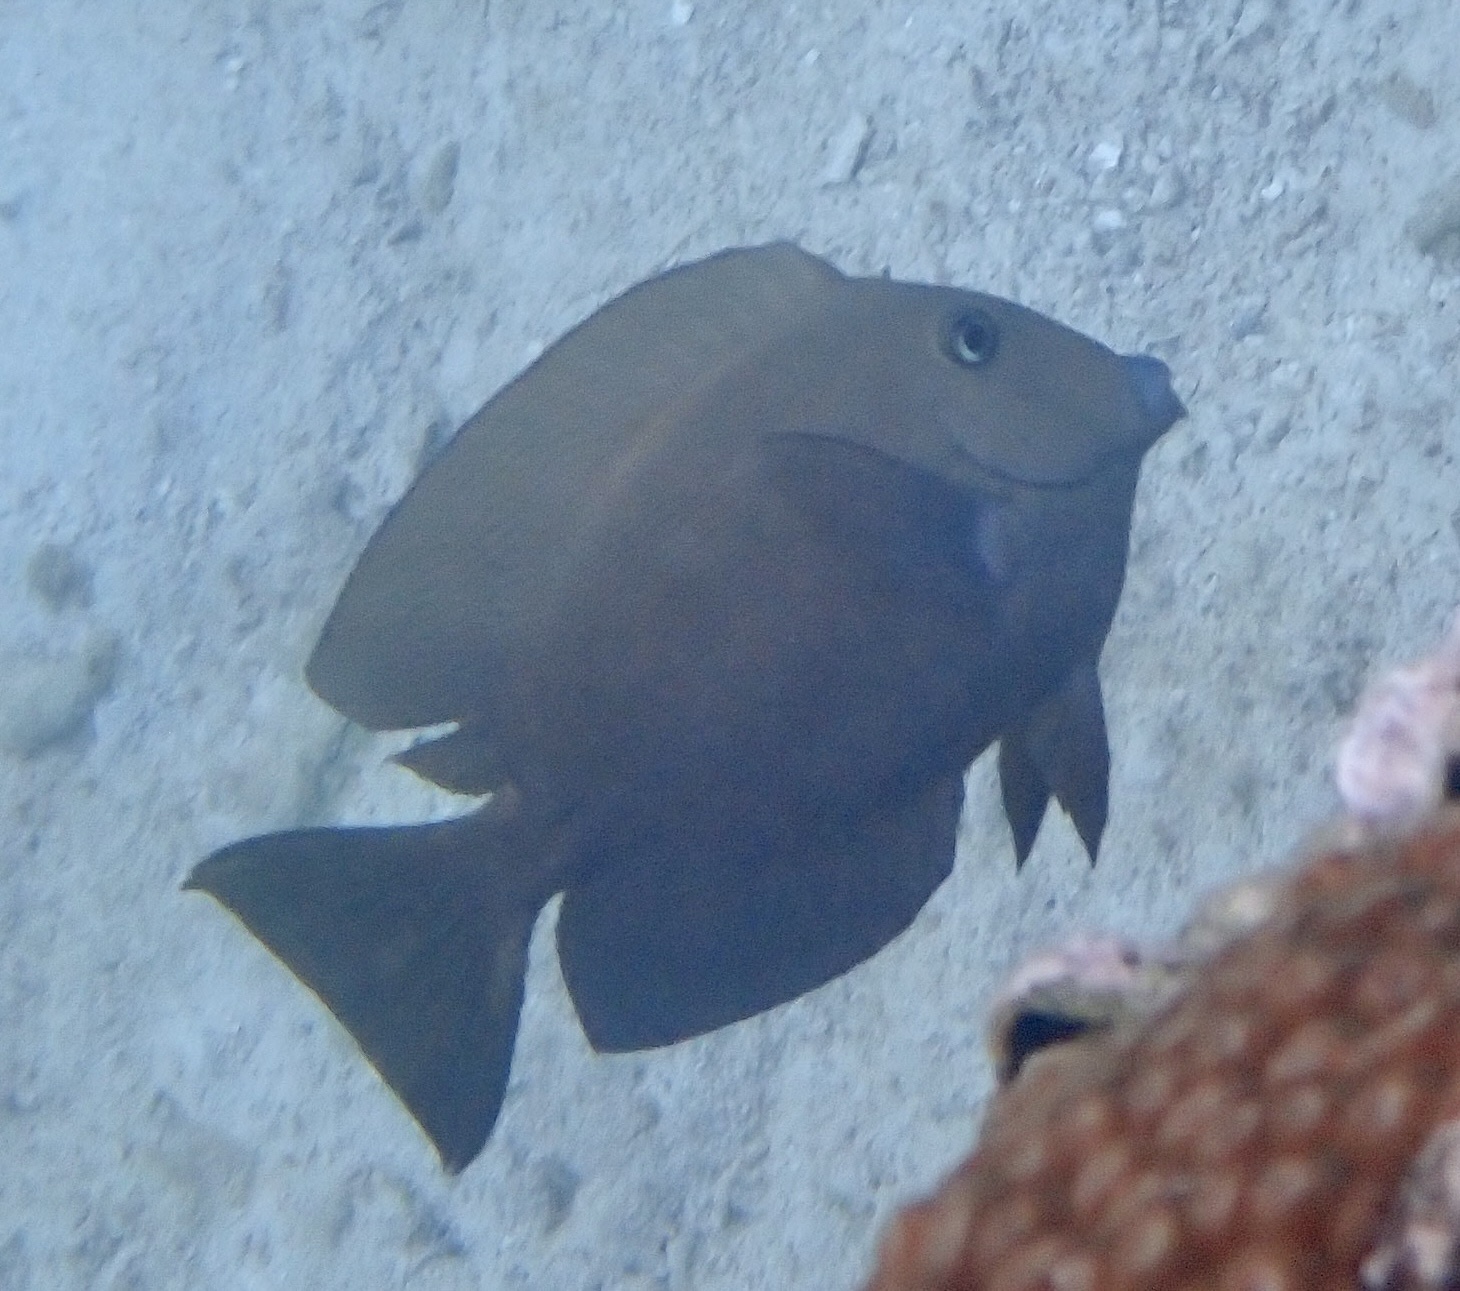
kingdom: Animalia
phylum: Chordata
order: Perciformes
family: Acanthuridae
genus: Ctenochaetus
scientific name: Ctenochaetus striatus
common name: Bristle-toothed surgeonfish
